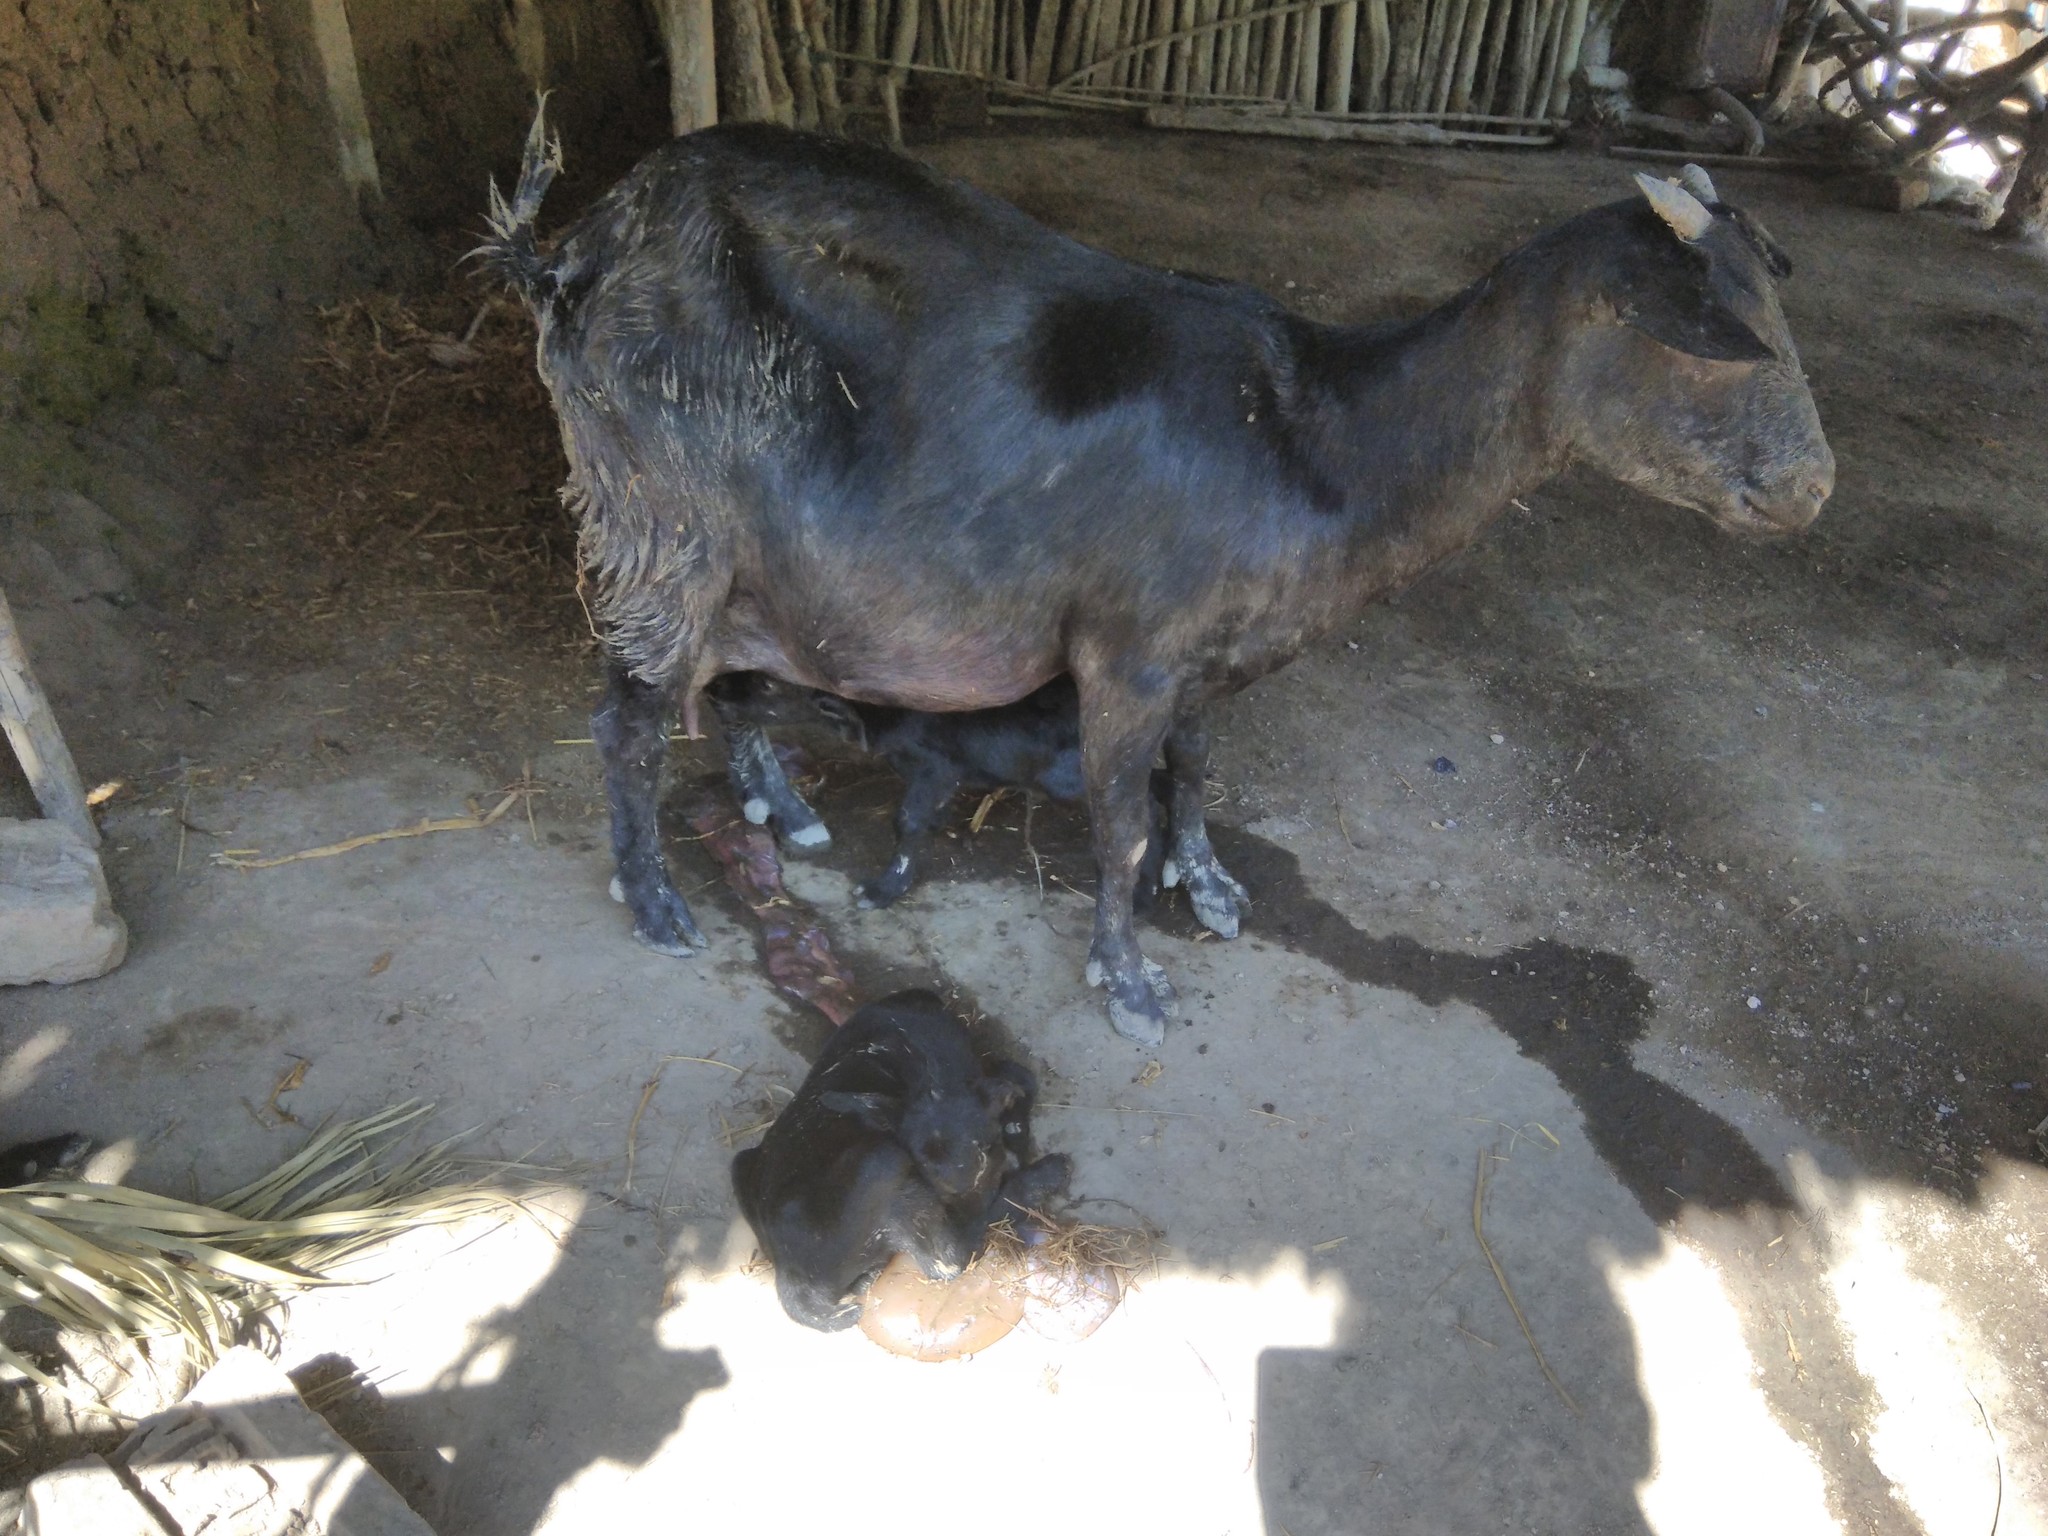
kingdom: Animalia
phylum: Chordata
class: Mammalia
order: Artiodactyla
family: Bovidae
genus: Capra
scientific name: Capra hircus
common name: Domestic goat
